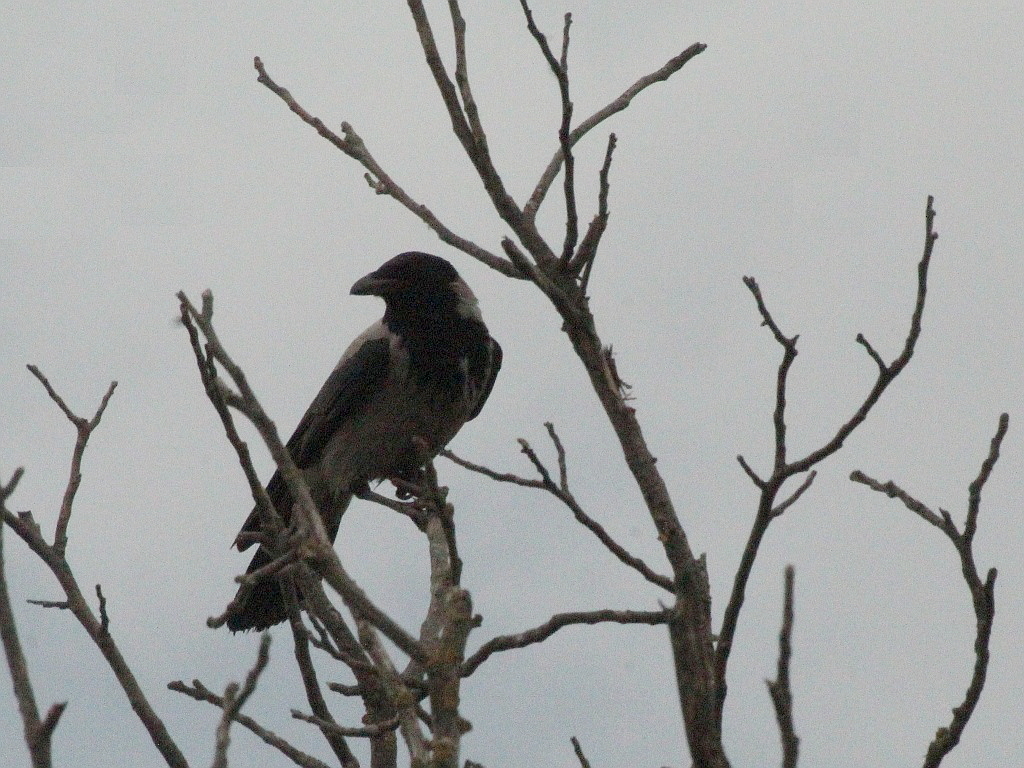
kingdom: Animalia
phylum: Chordata
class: Aves
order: Passeriformes
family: Corvidae
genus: Corvus
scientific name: Corvus cornix
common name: Hooded crow
